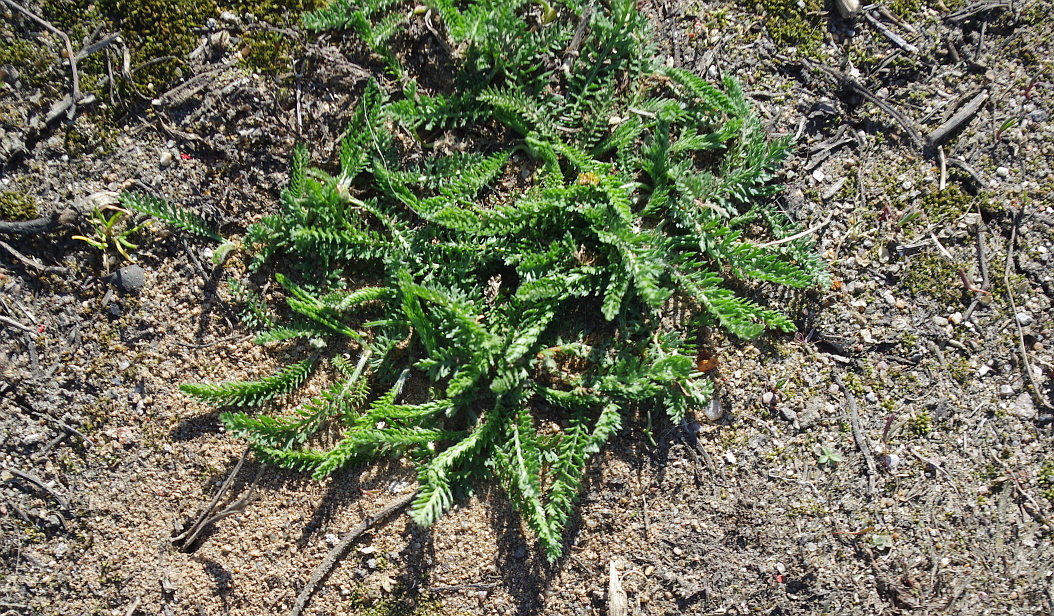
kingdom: Plantae
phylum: Tracheophyta
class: Magnoliopsida
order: Asterales
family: Asteraceae
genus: Achillea
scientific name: Achillea millefolium
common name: Yarrow
